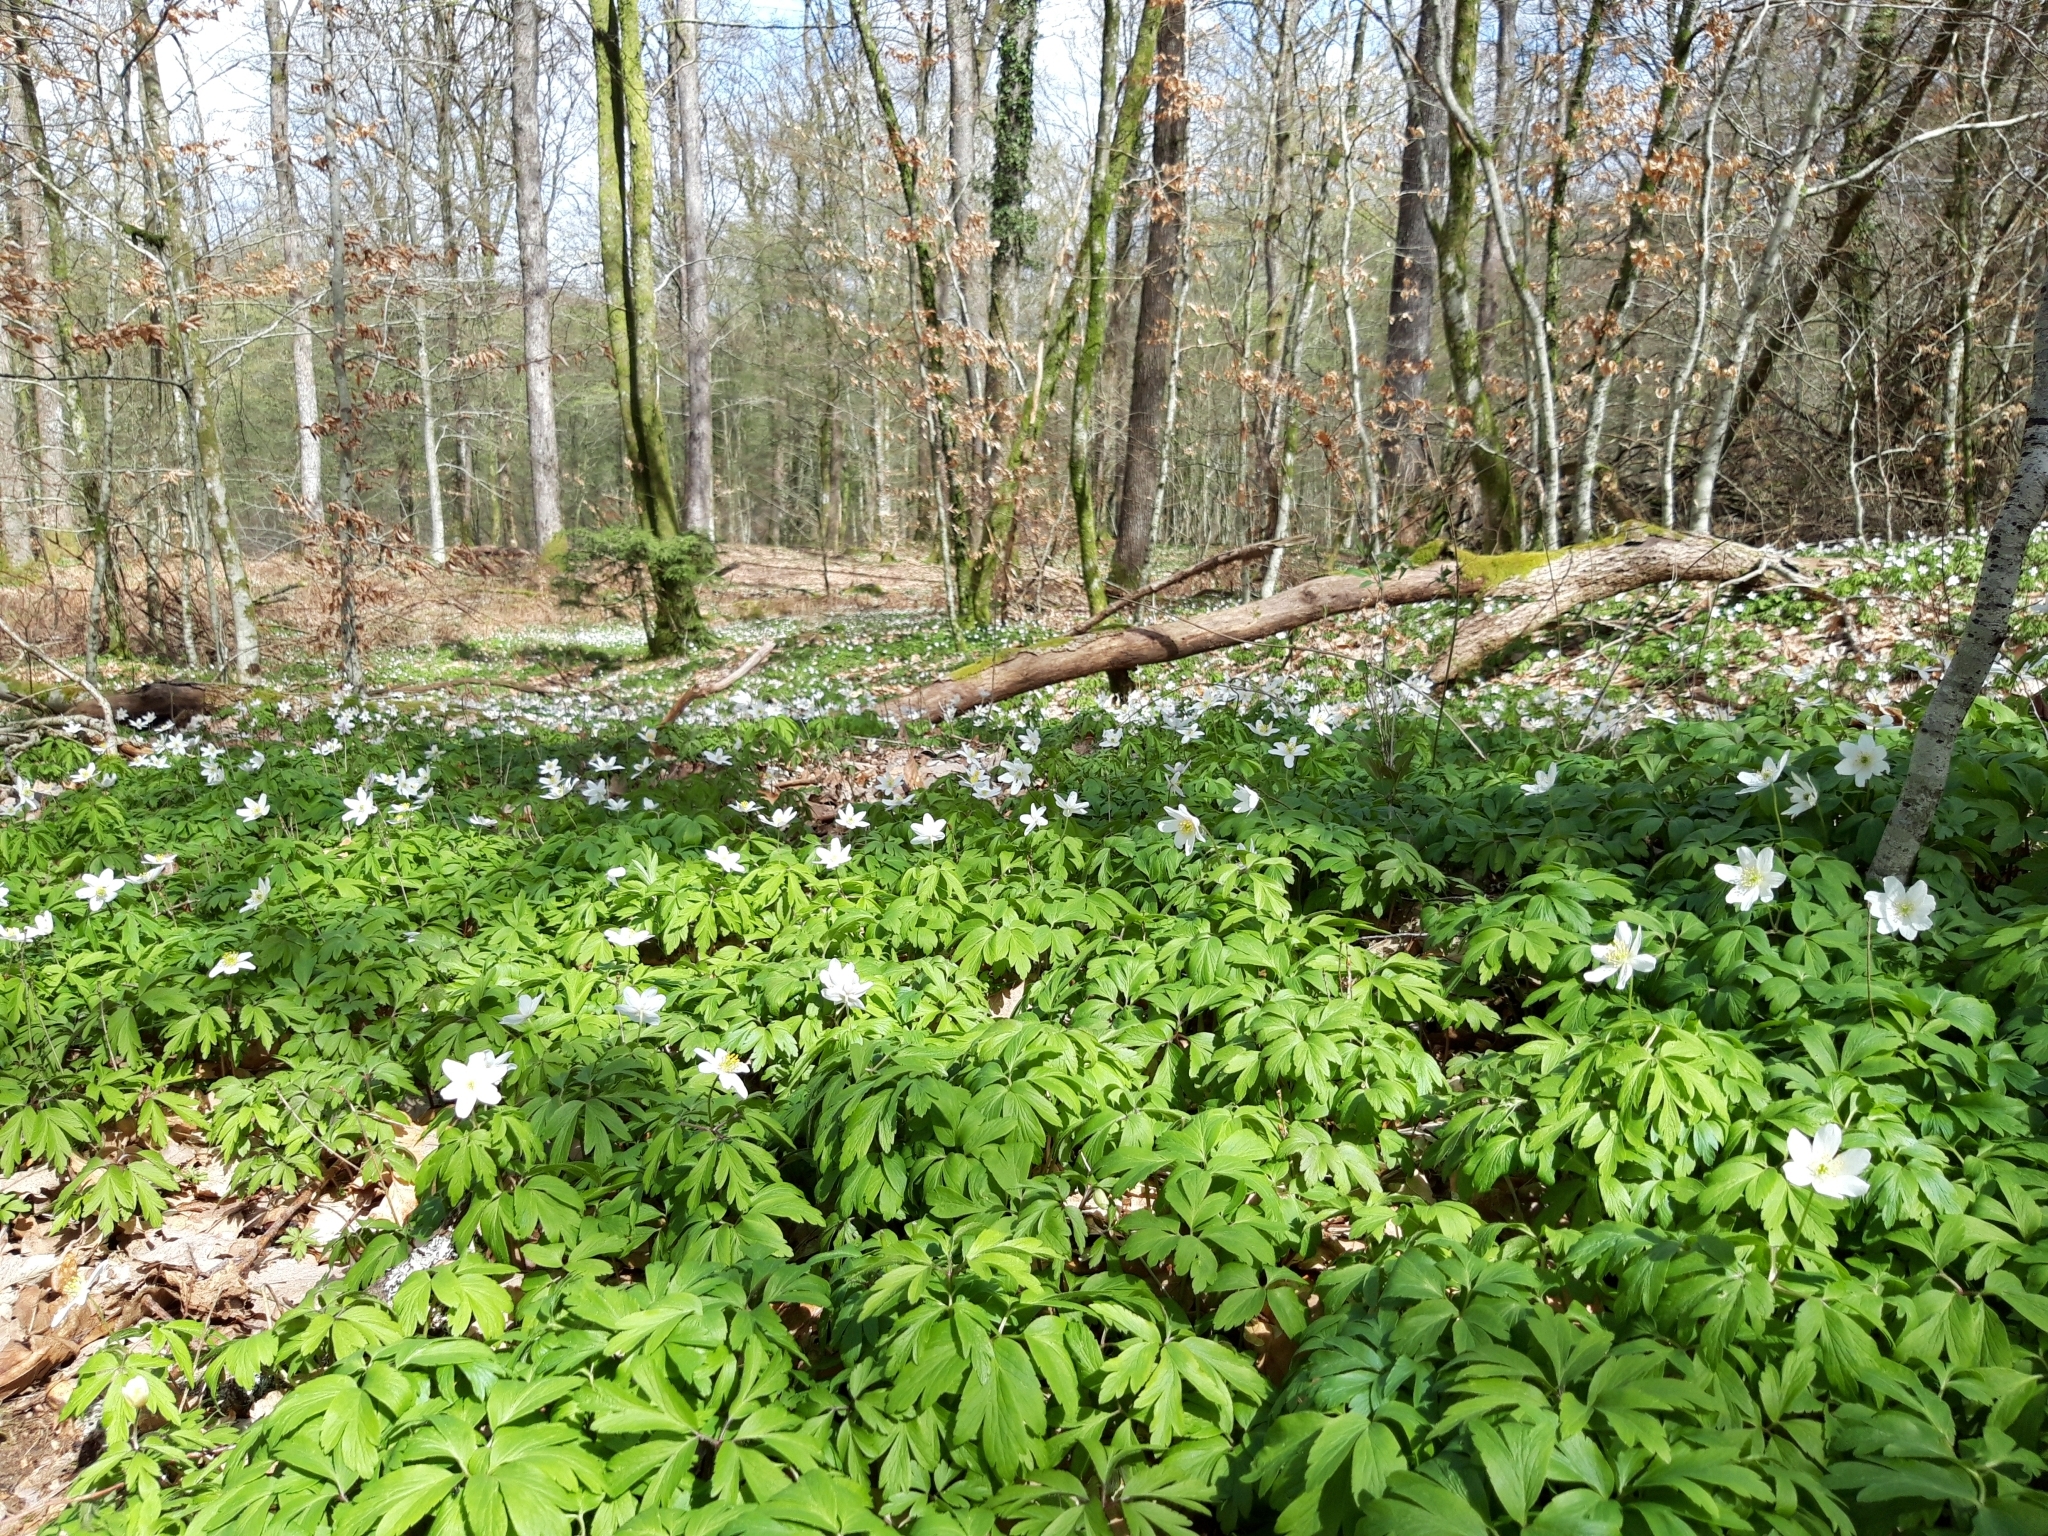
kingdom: Plantae
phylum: Tracheophyta
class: Magnoliopsida
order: Ranunculales
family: Ranunculaceae
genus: Anemone
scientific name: Anemone nemorosa
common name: Wood anemone
